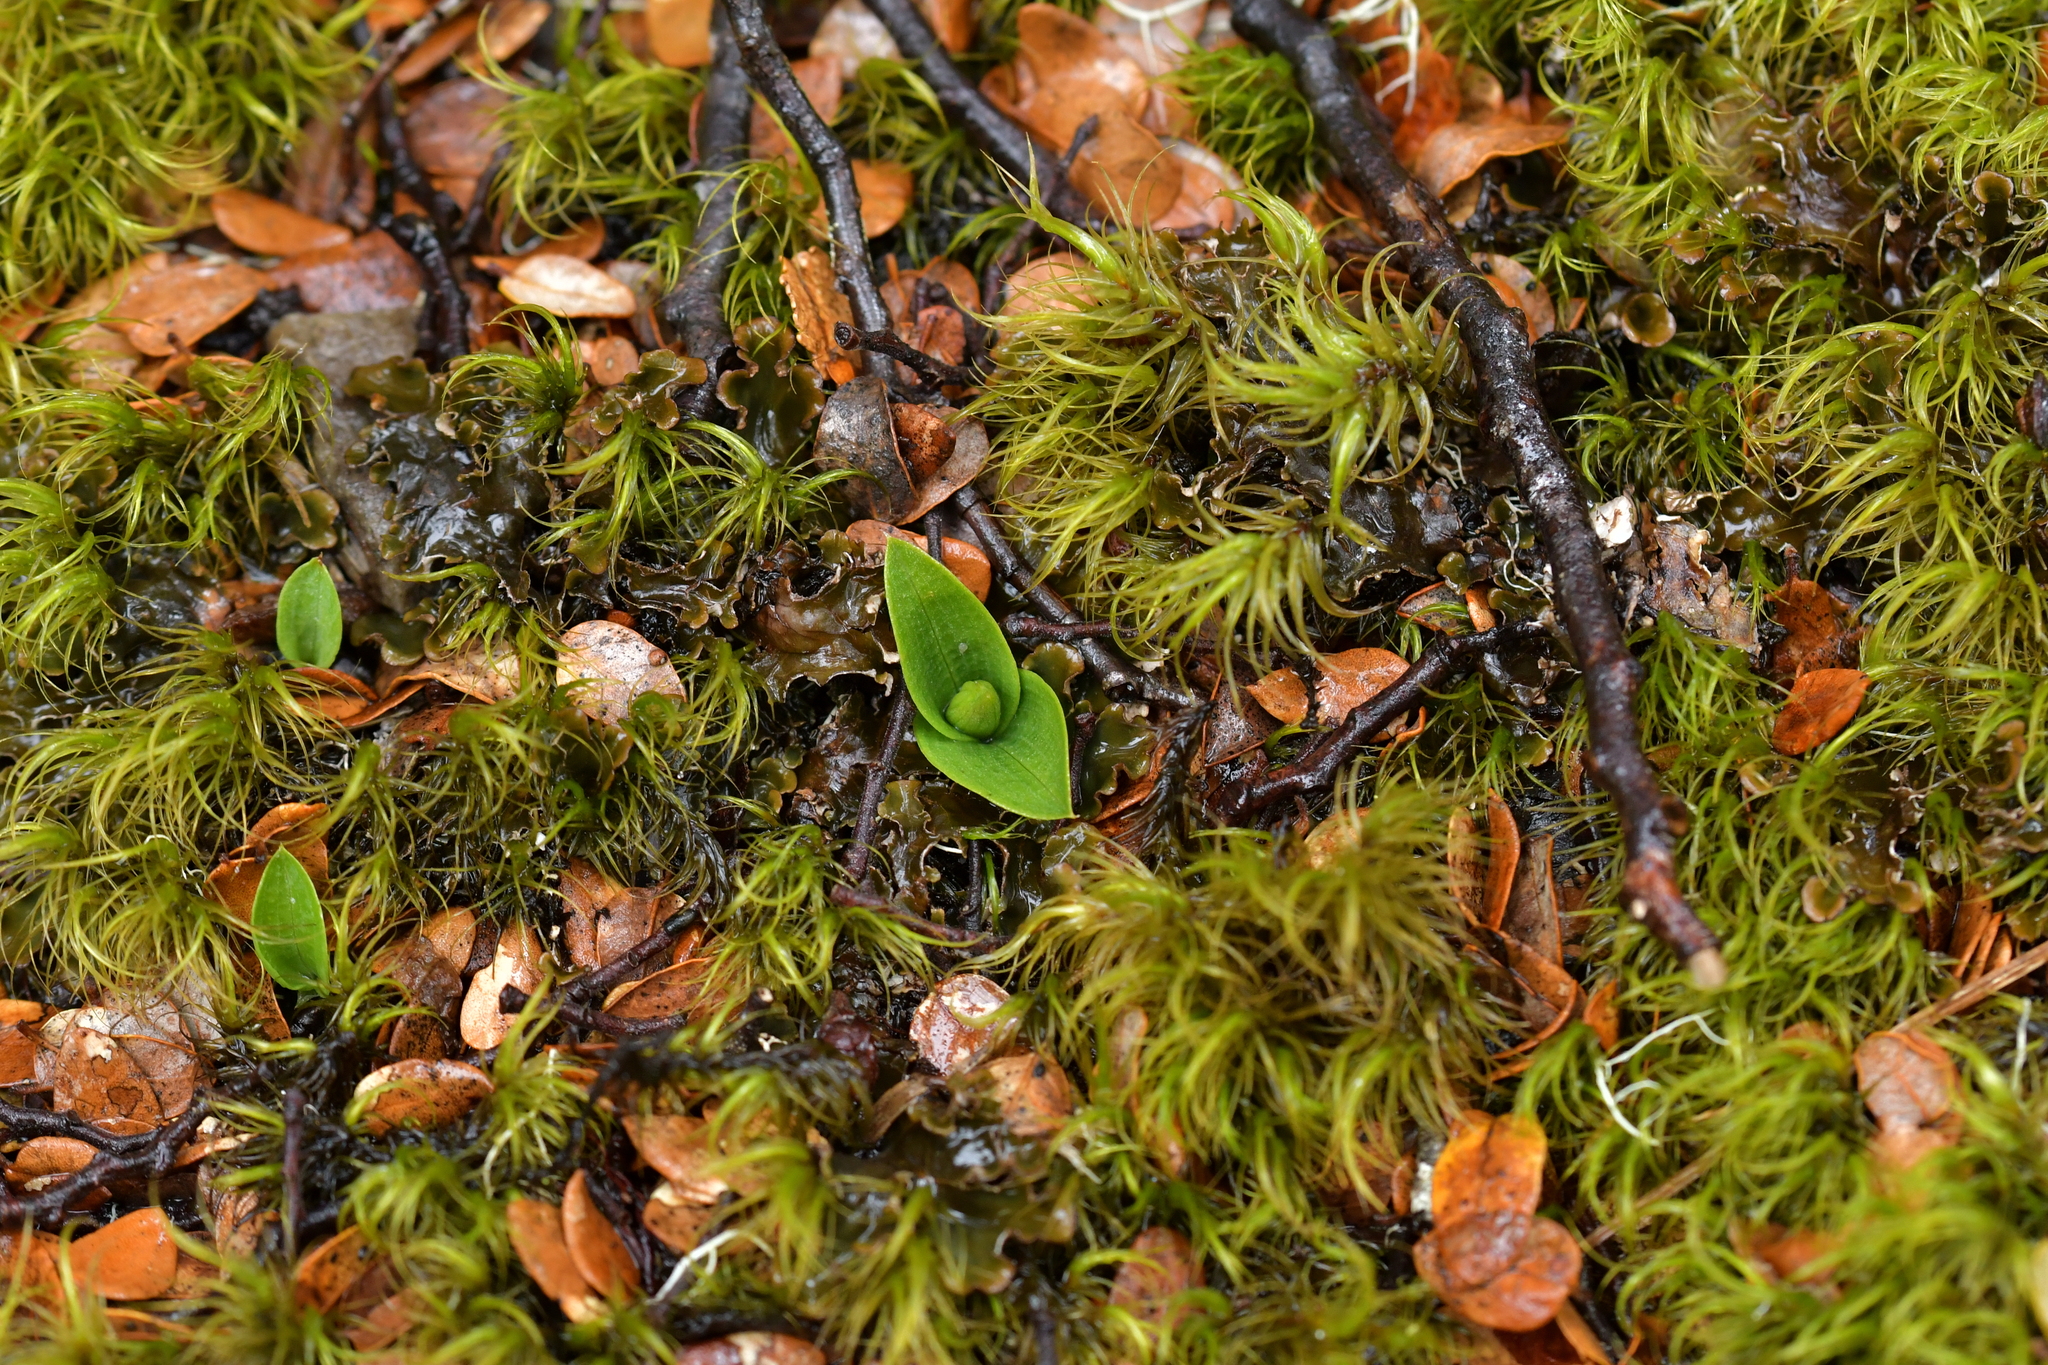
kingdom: Plantae
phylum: Tracheophyta
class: Liliopsida
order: Asparagales
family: Orchidaceae
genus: Chiloglottis
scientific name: Chiloglottis cornuta
